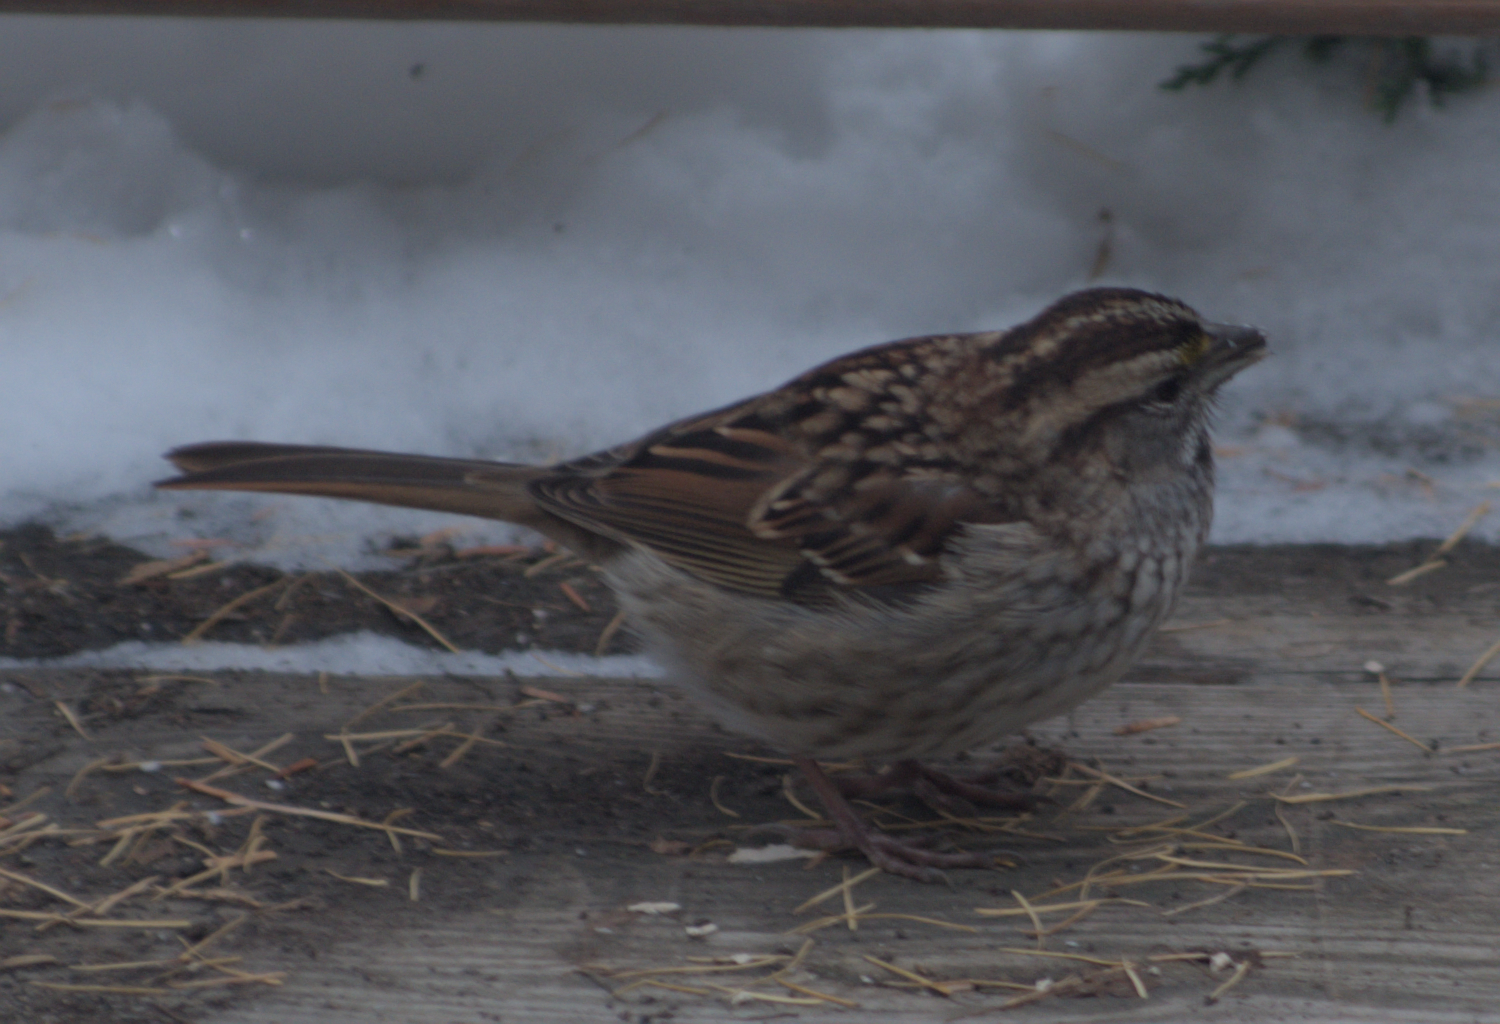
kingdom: Animalia
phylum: Chordata
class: Aves
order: Passeriformes
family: Passerellidae
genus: Zonotrichia
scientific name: Zonotrichia albicollis
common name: White-throated sparrow
